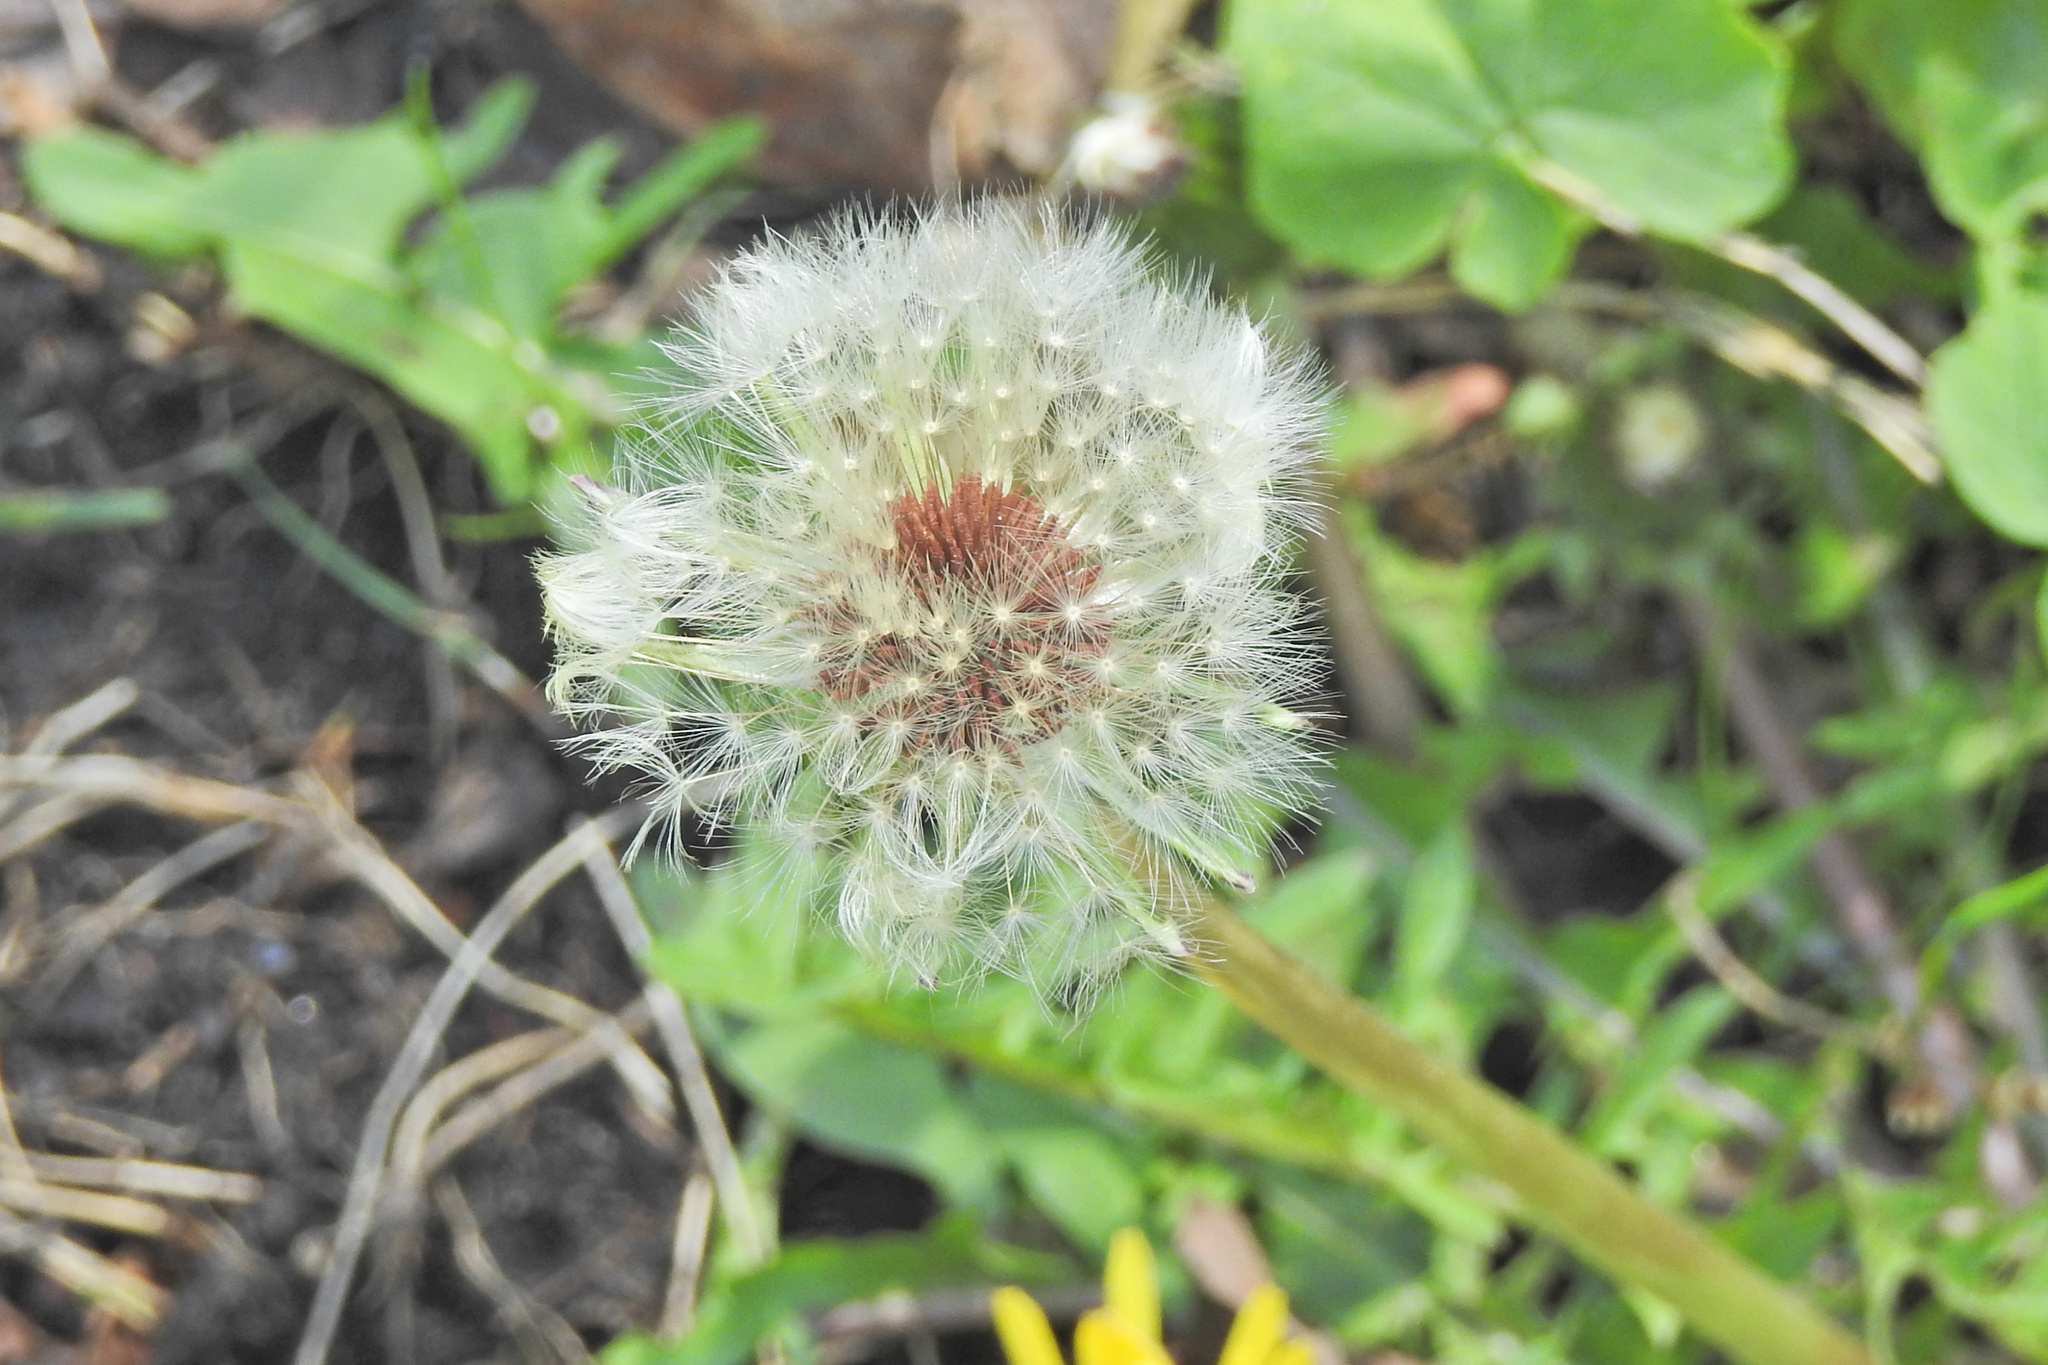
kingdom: Plantae
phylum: Tracheophyta
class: Magnoliopsida
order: Asterales
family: Asteraceae
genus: Taraxacum
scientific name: Taraxacum erythrospermum
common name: Rock dandelion
